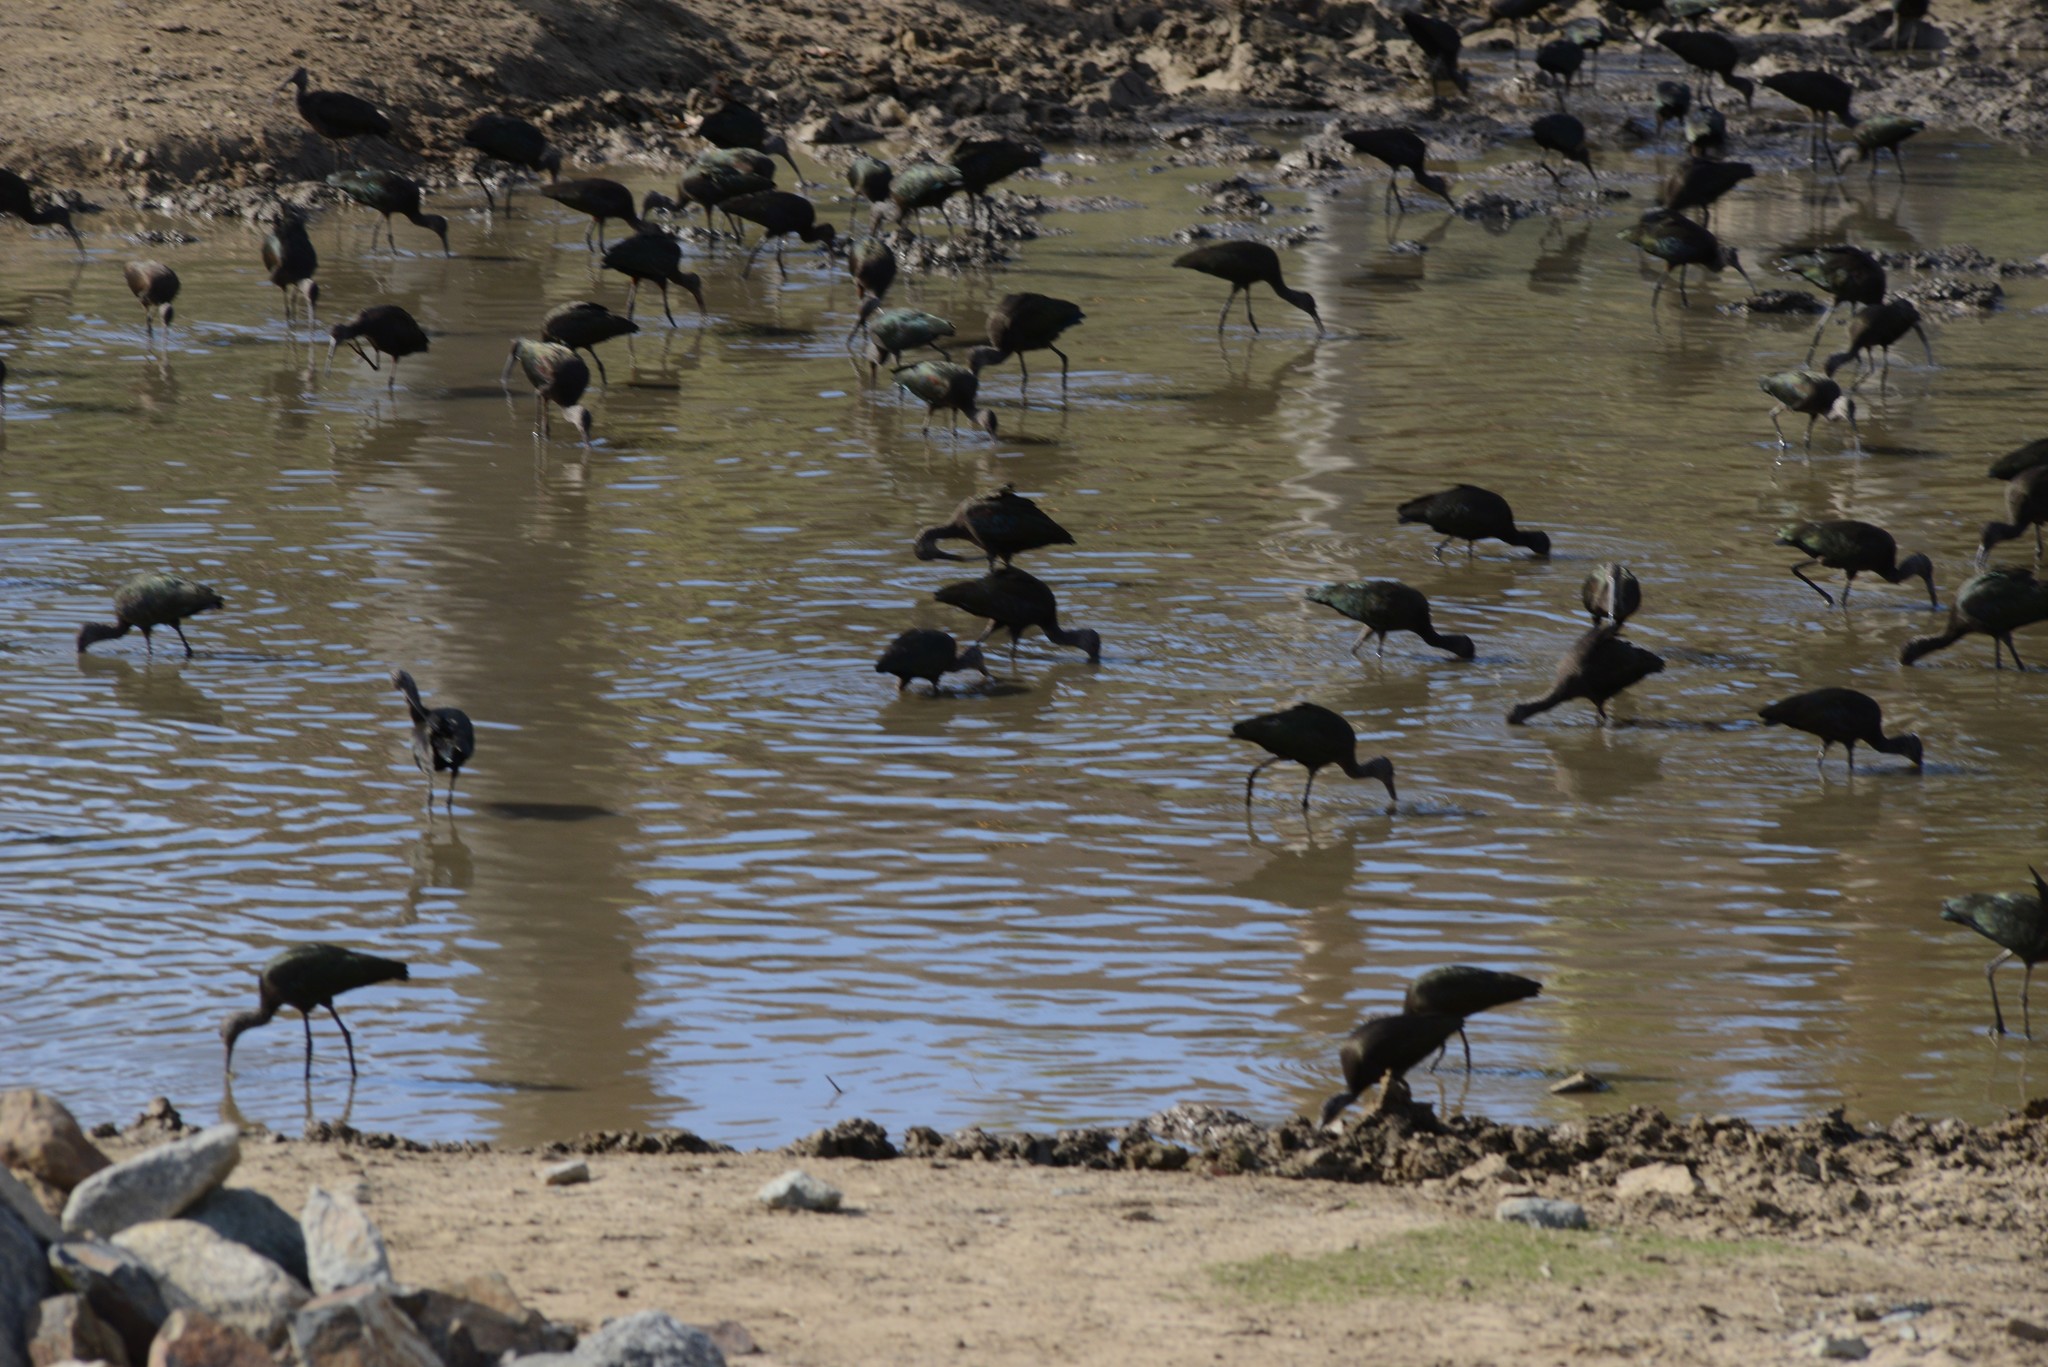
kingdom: Animalia
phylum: Chordata
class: Aves
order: Pelecaniformes
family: Threskiornithidae
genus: Plegadis
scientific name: Plegadis chihi
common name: White-faced ibis
